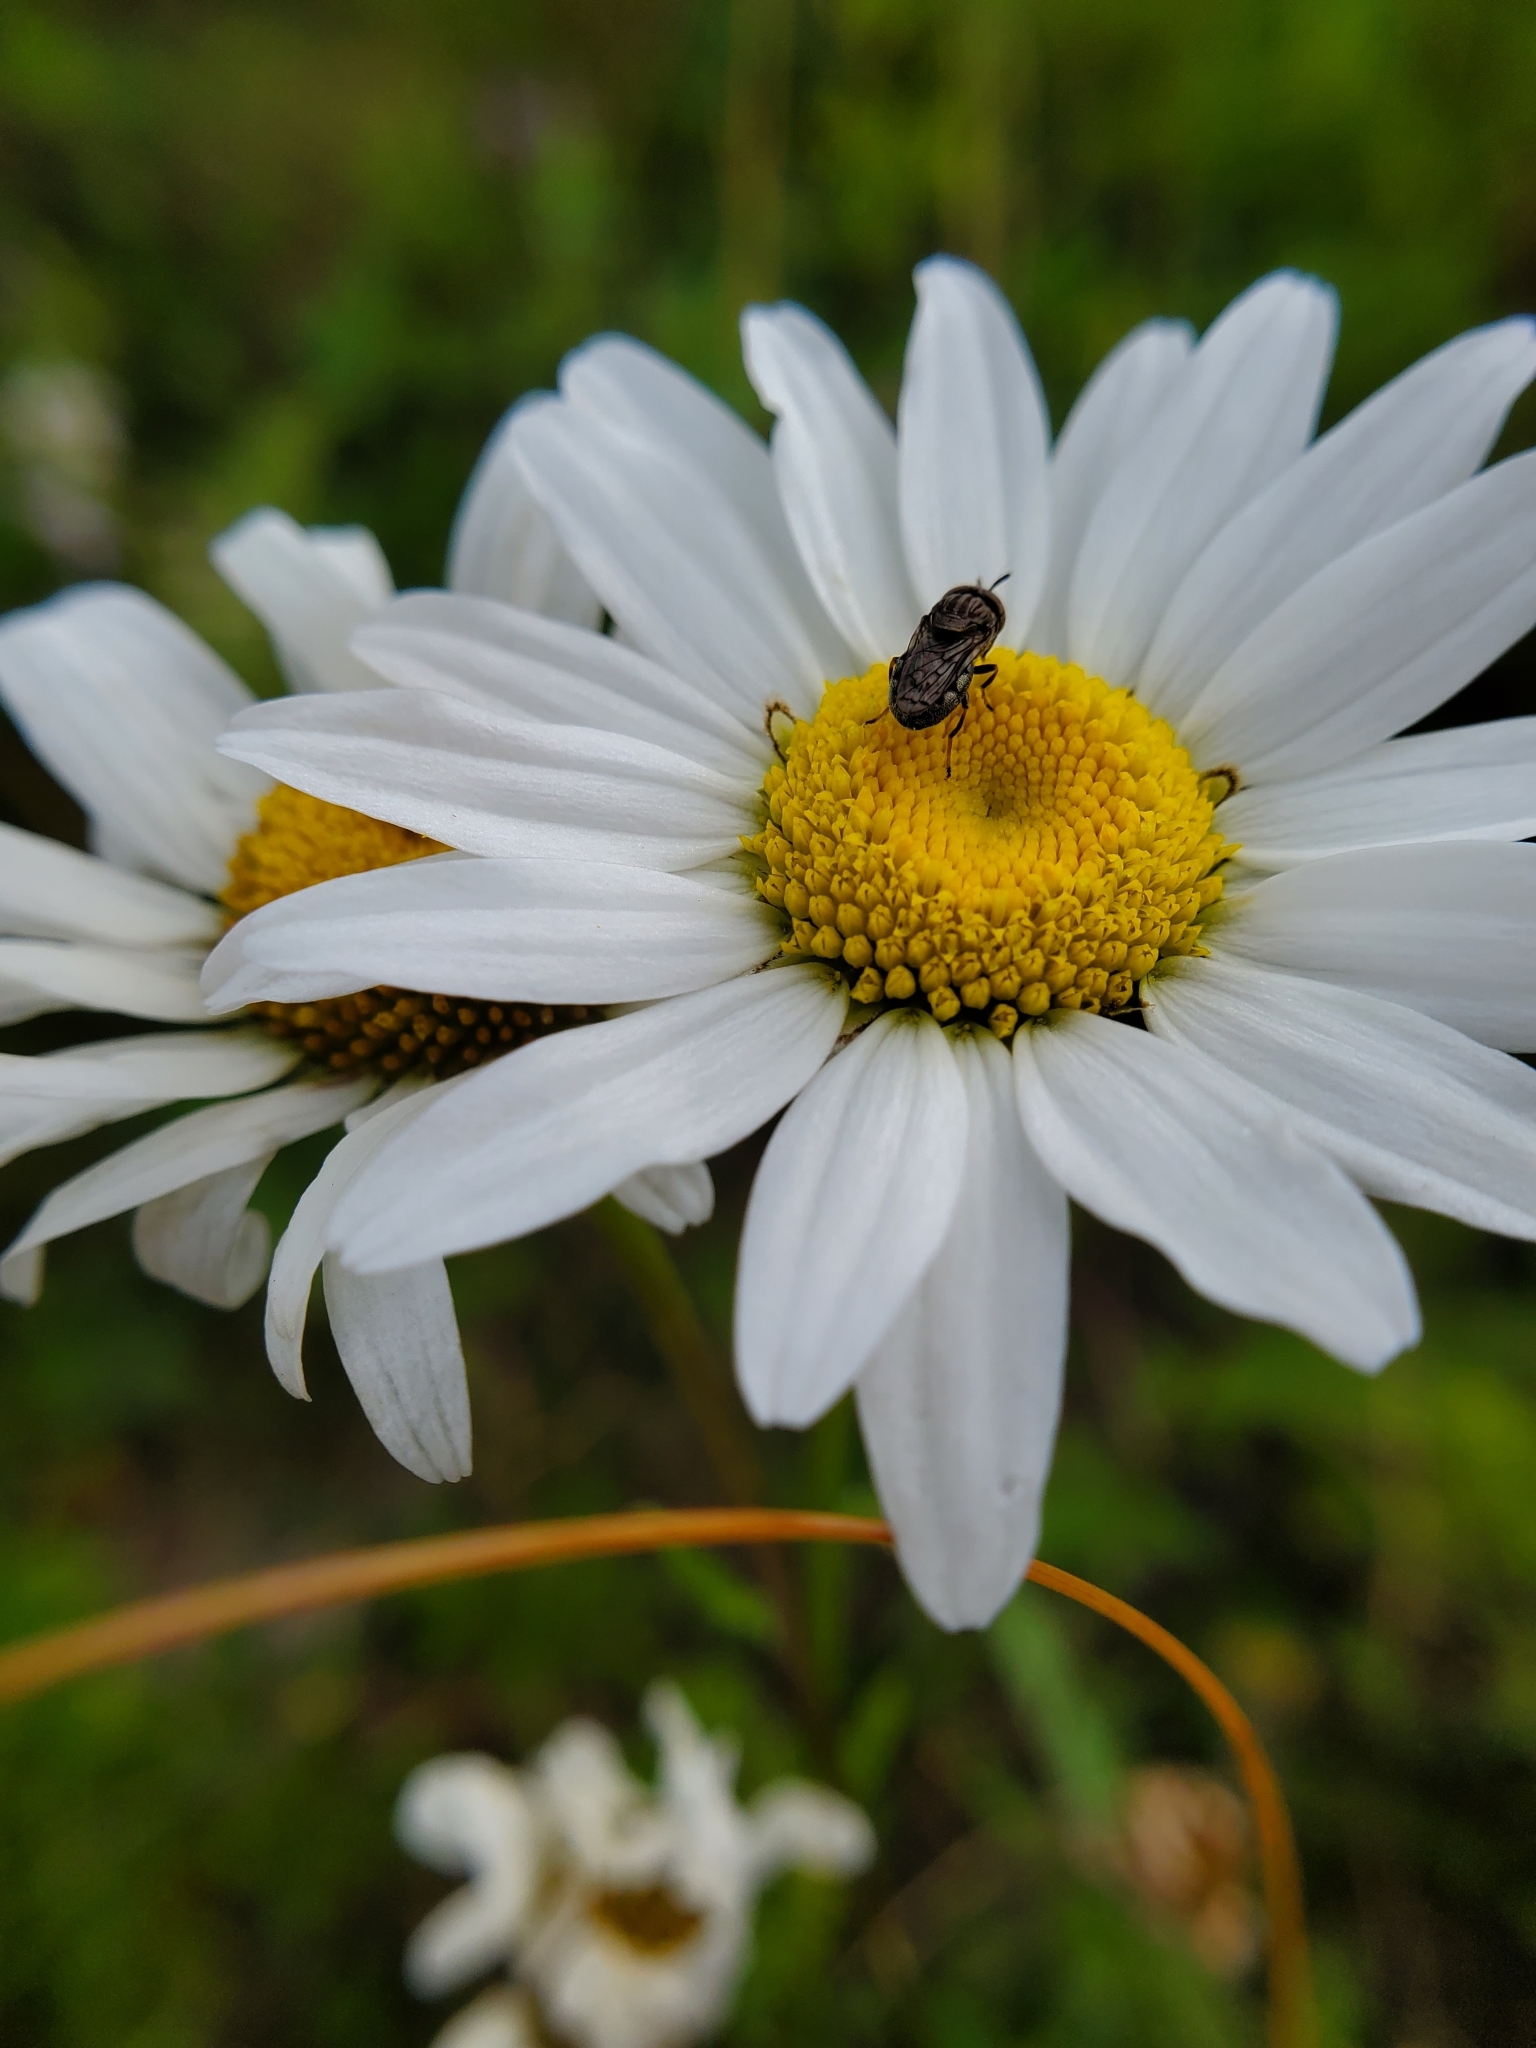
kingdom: Animalia
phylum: Arthropoda
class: Insecta
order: Diptera
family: Syrphidae
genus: Orthonevra
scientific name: Orthonevra nitida
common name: Wavy mucksucker
